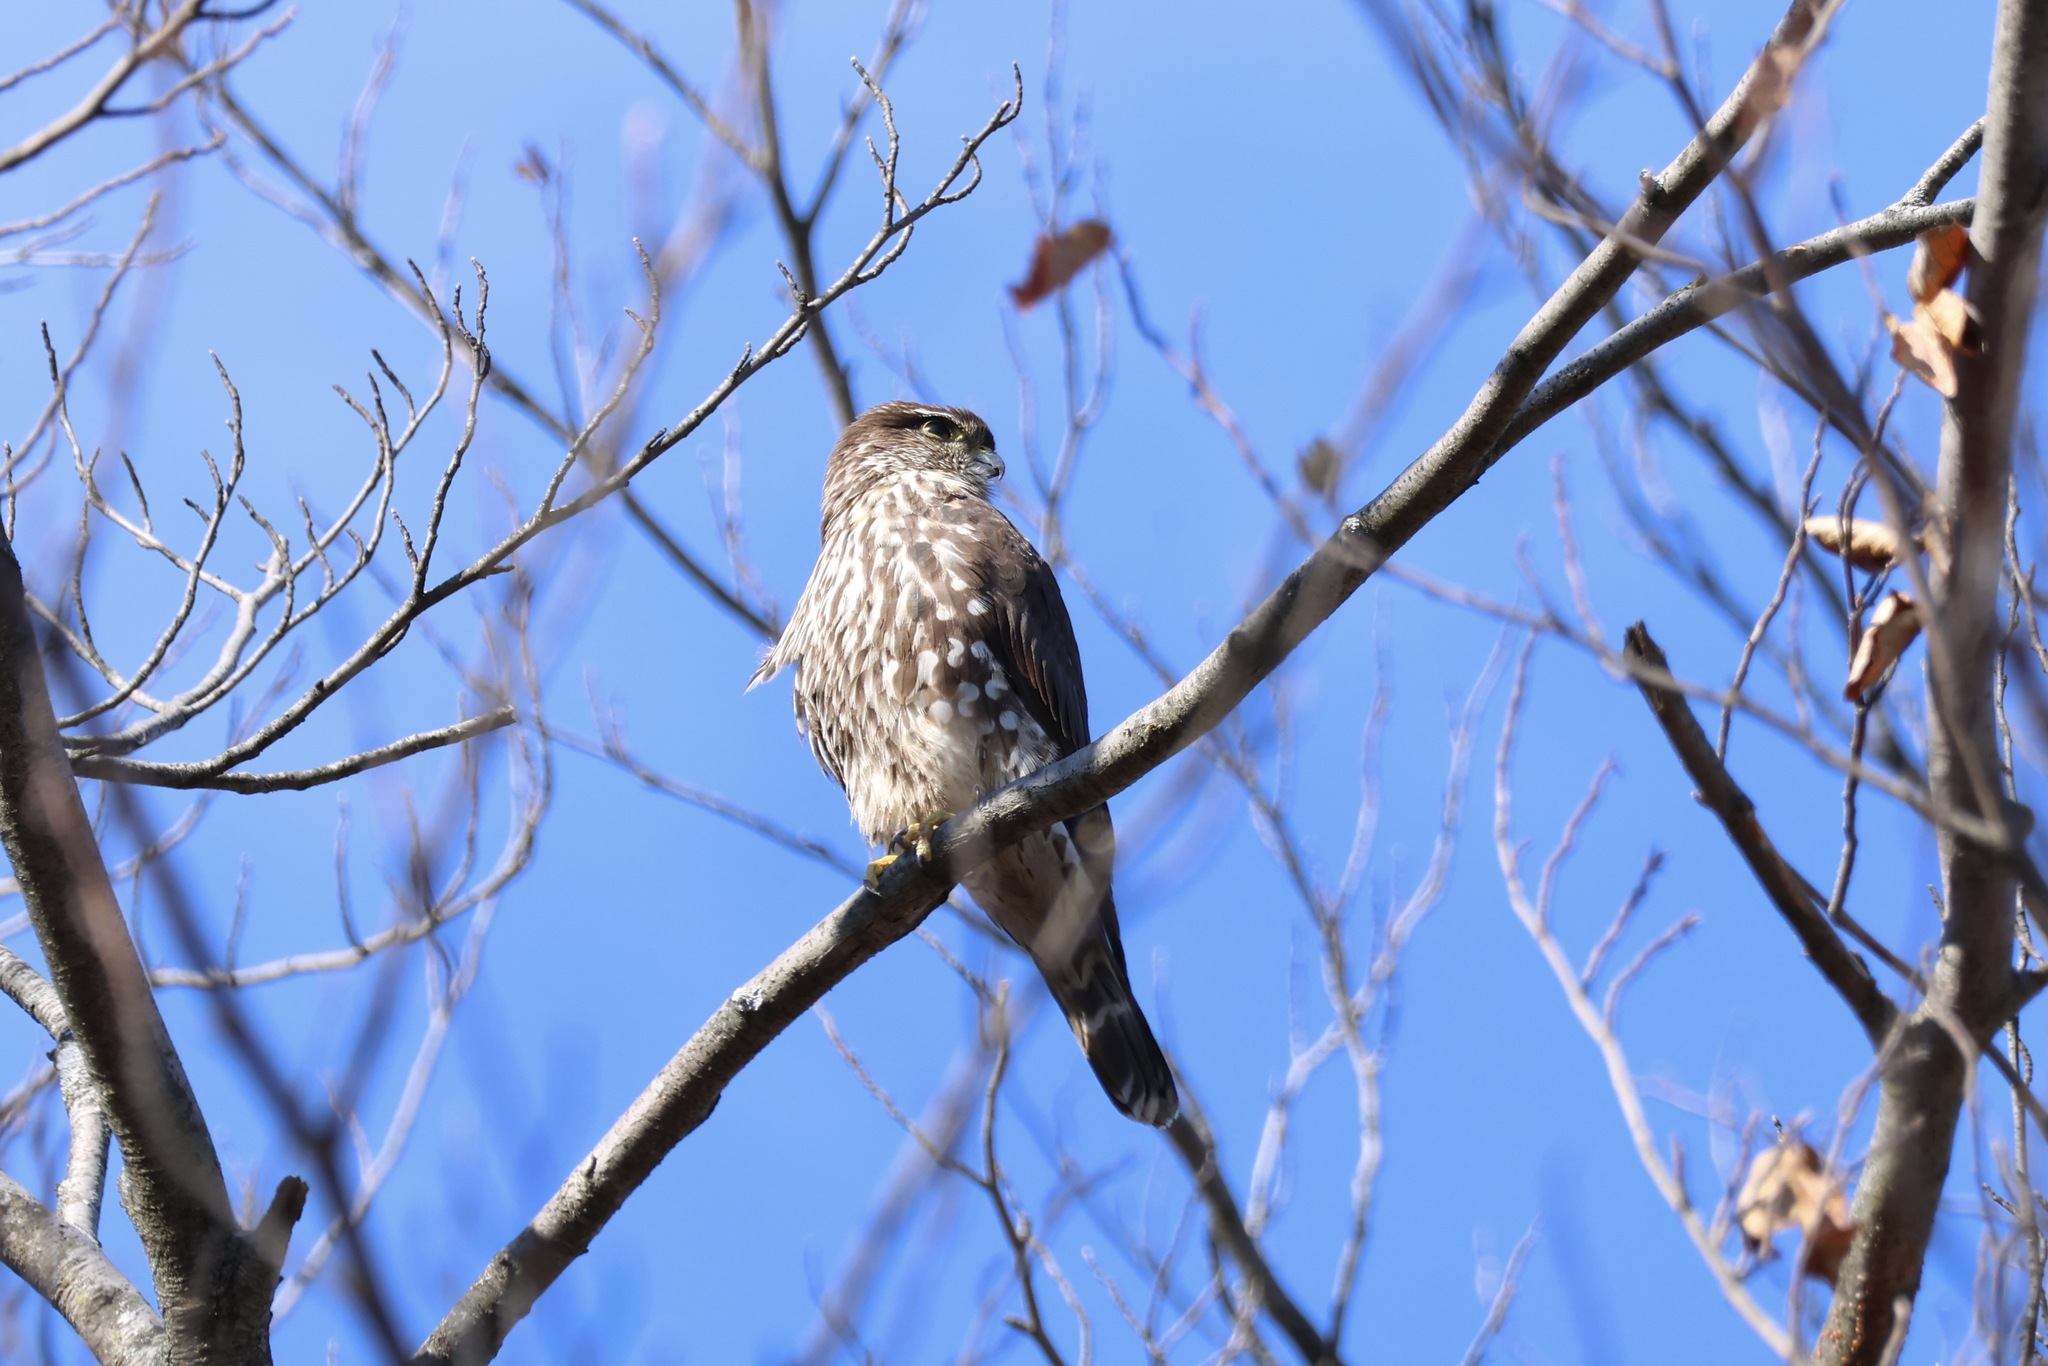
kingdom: Animalia
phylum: Chordata
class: Aves
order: Falconiformes
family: Falconidae
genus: Falco
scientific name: Falco columbarius
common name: Merlin
